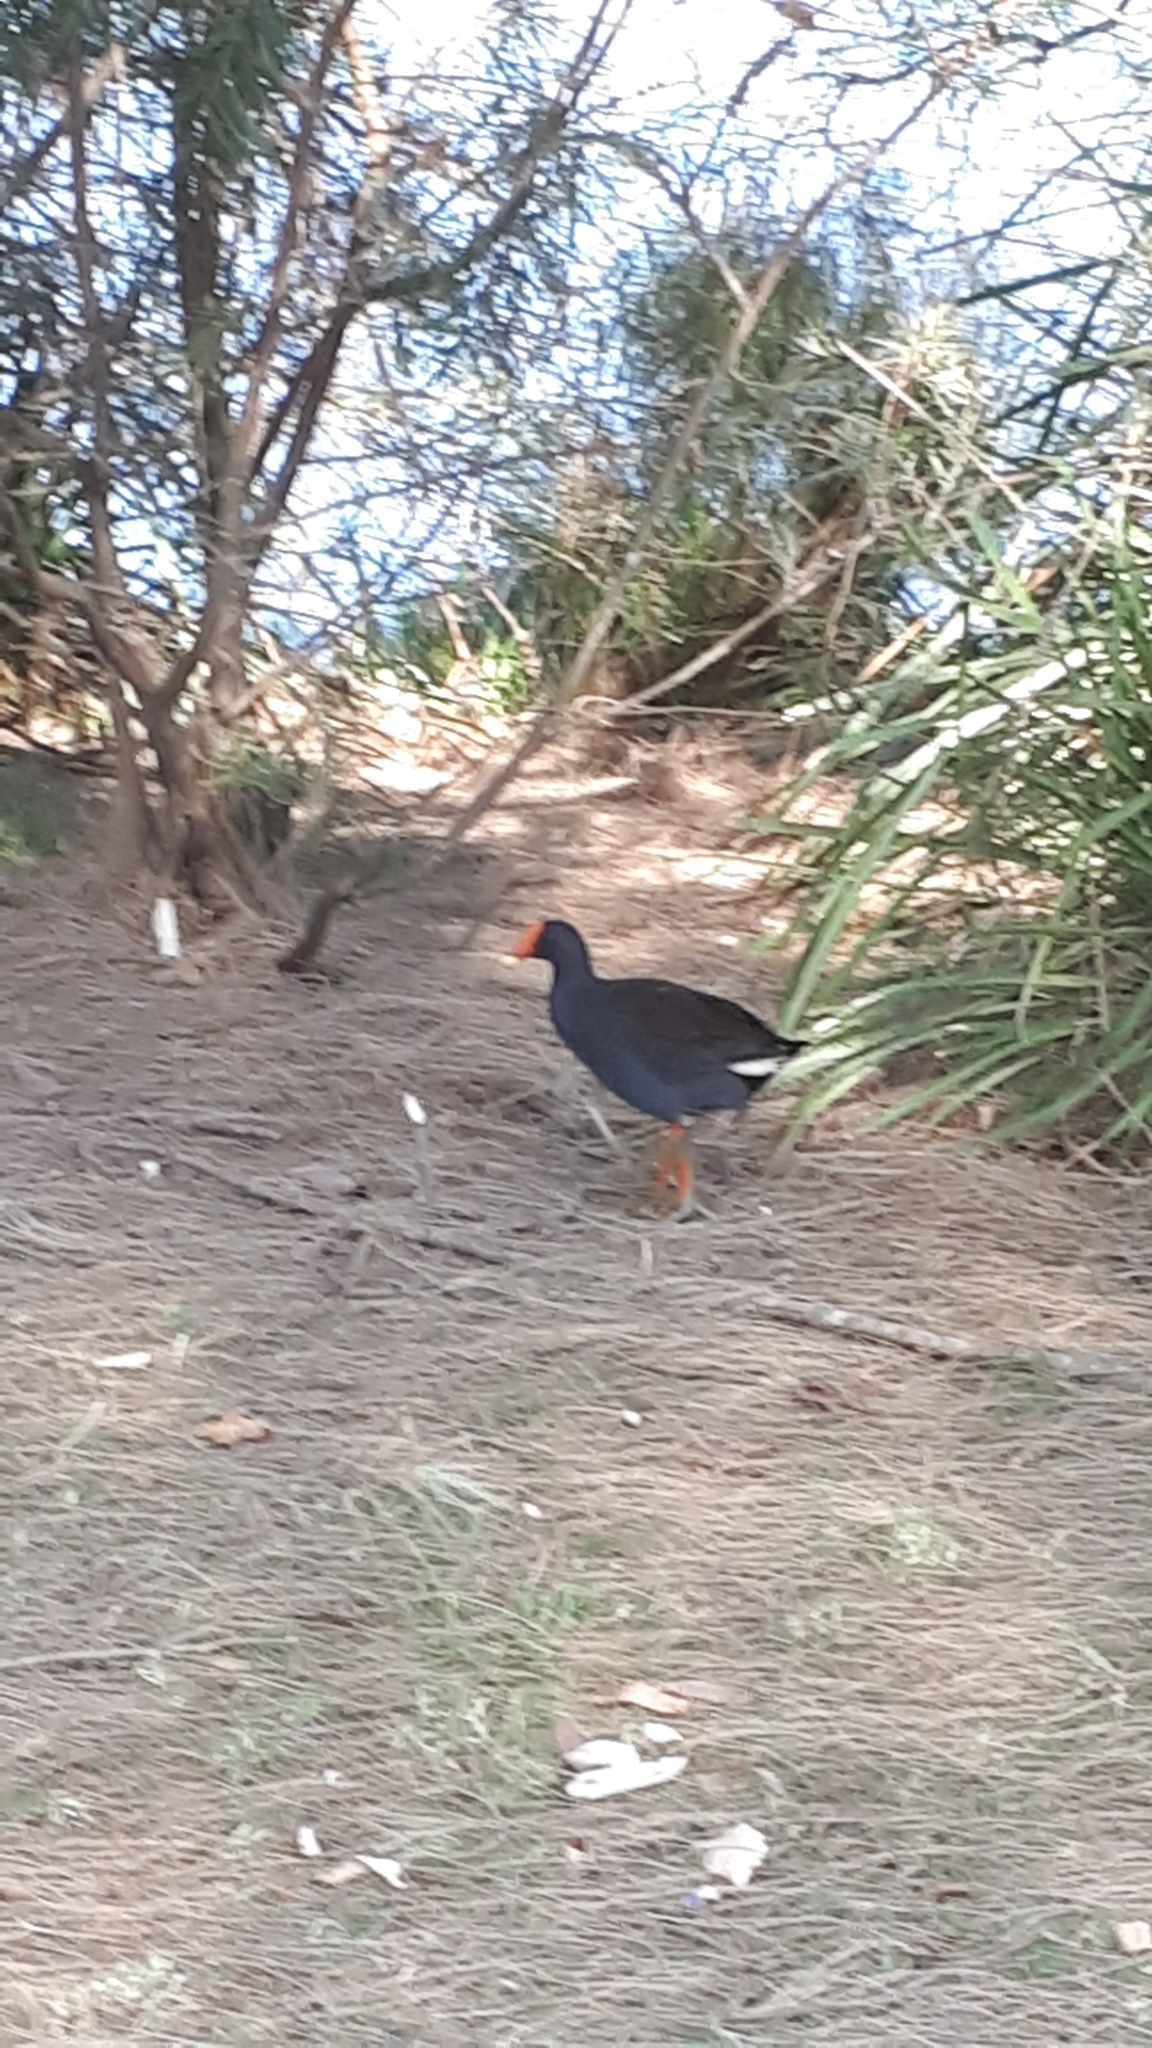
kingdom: Animalia
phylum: Chordata
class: Aves
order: Gruiformes
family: Rallidae
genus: Porphyrio
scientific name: Porphyrio melanotus
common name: Australasian swamphen
